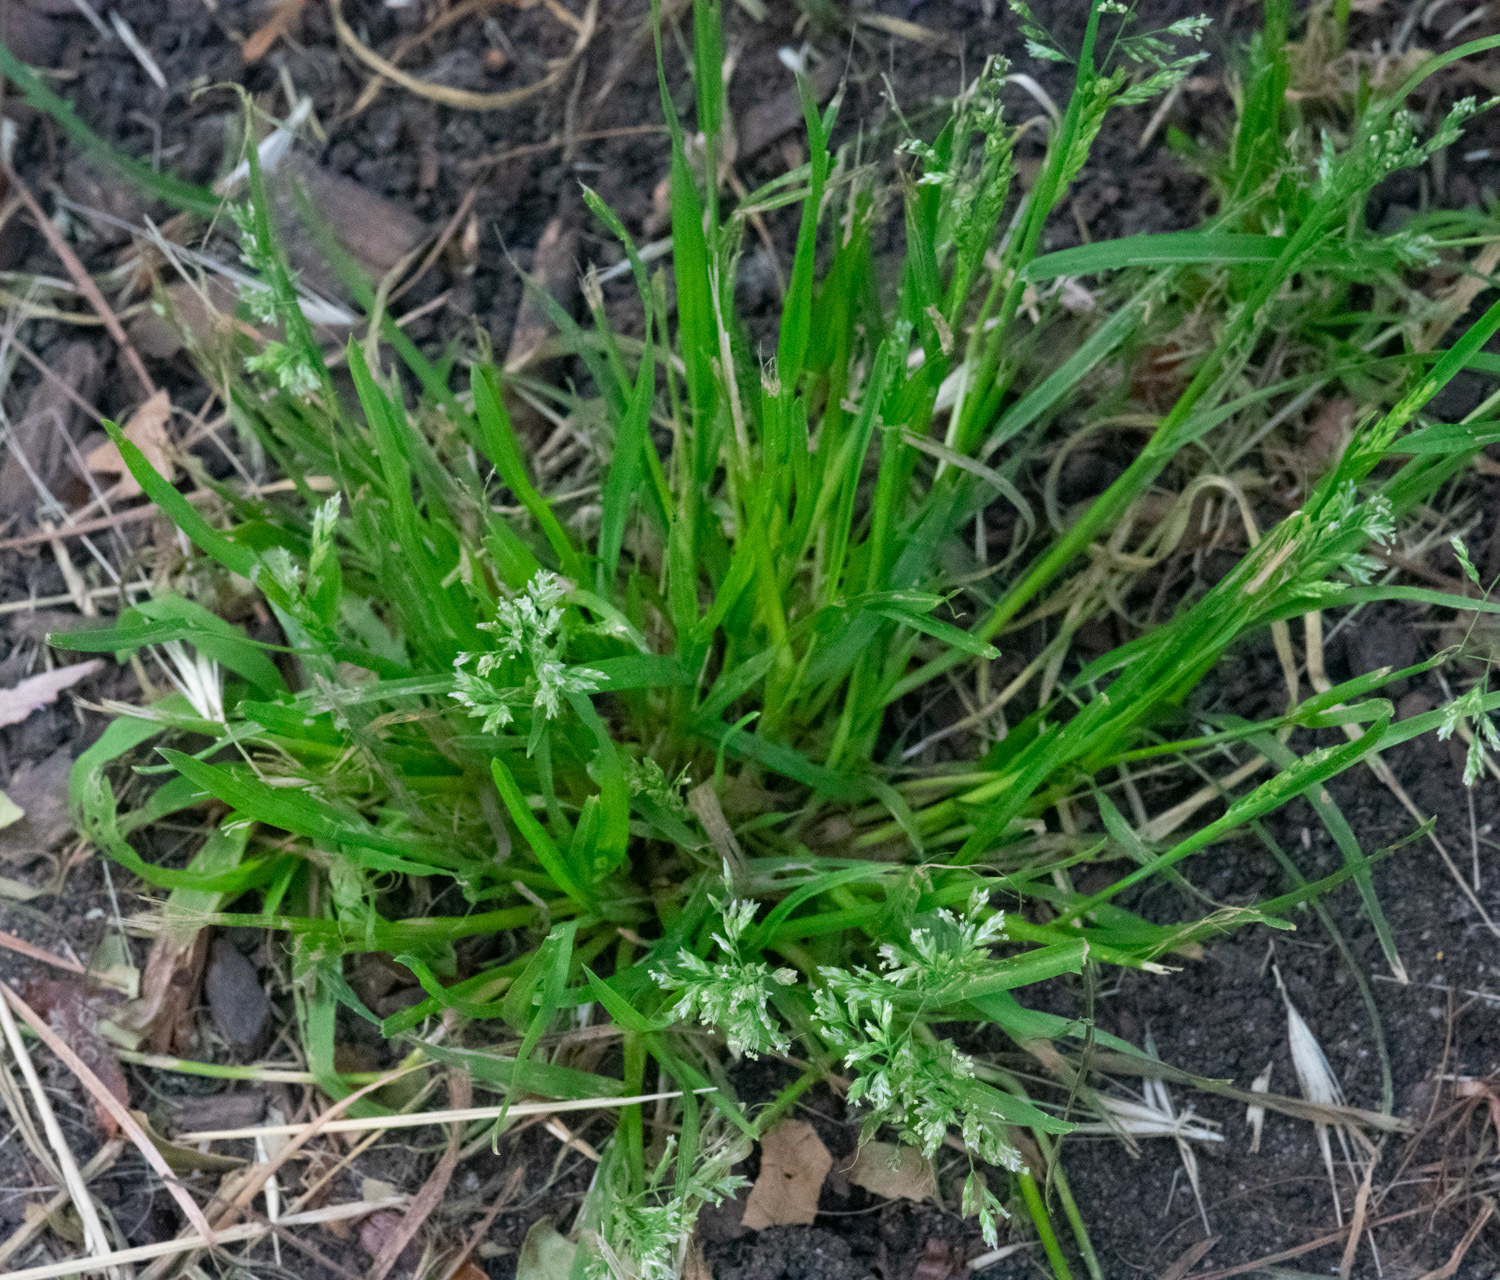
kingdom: Plantae
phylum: Tracheophyta
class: Liliopsida
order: Poales
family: Poaceae
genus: Poa
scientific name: Poa annua
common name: Annual bluegrass
